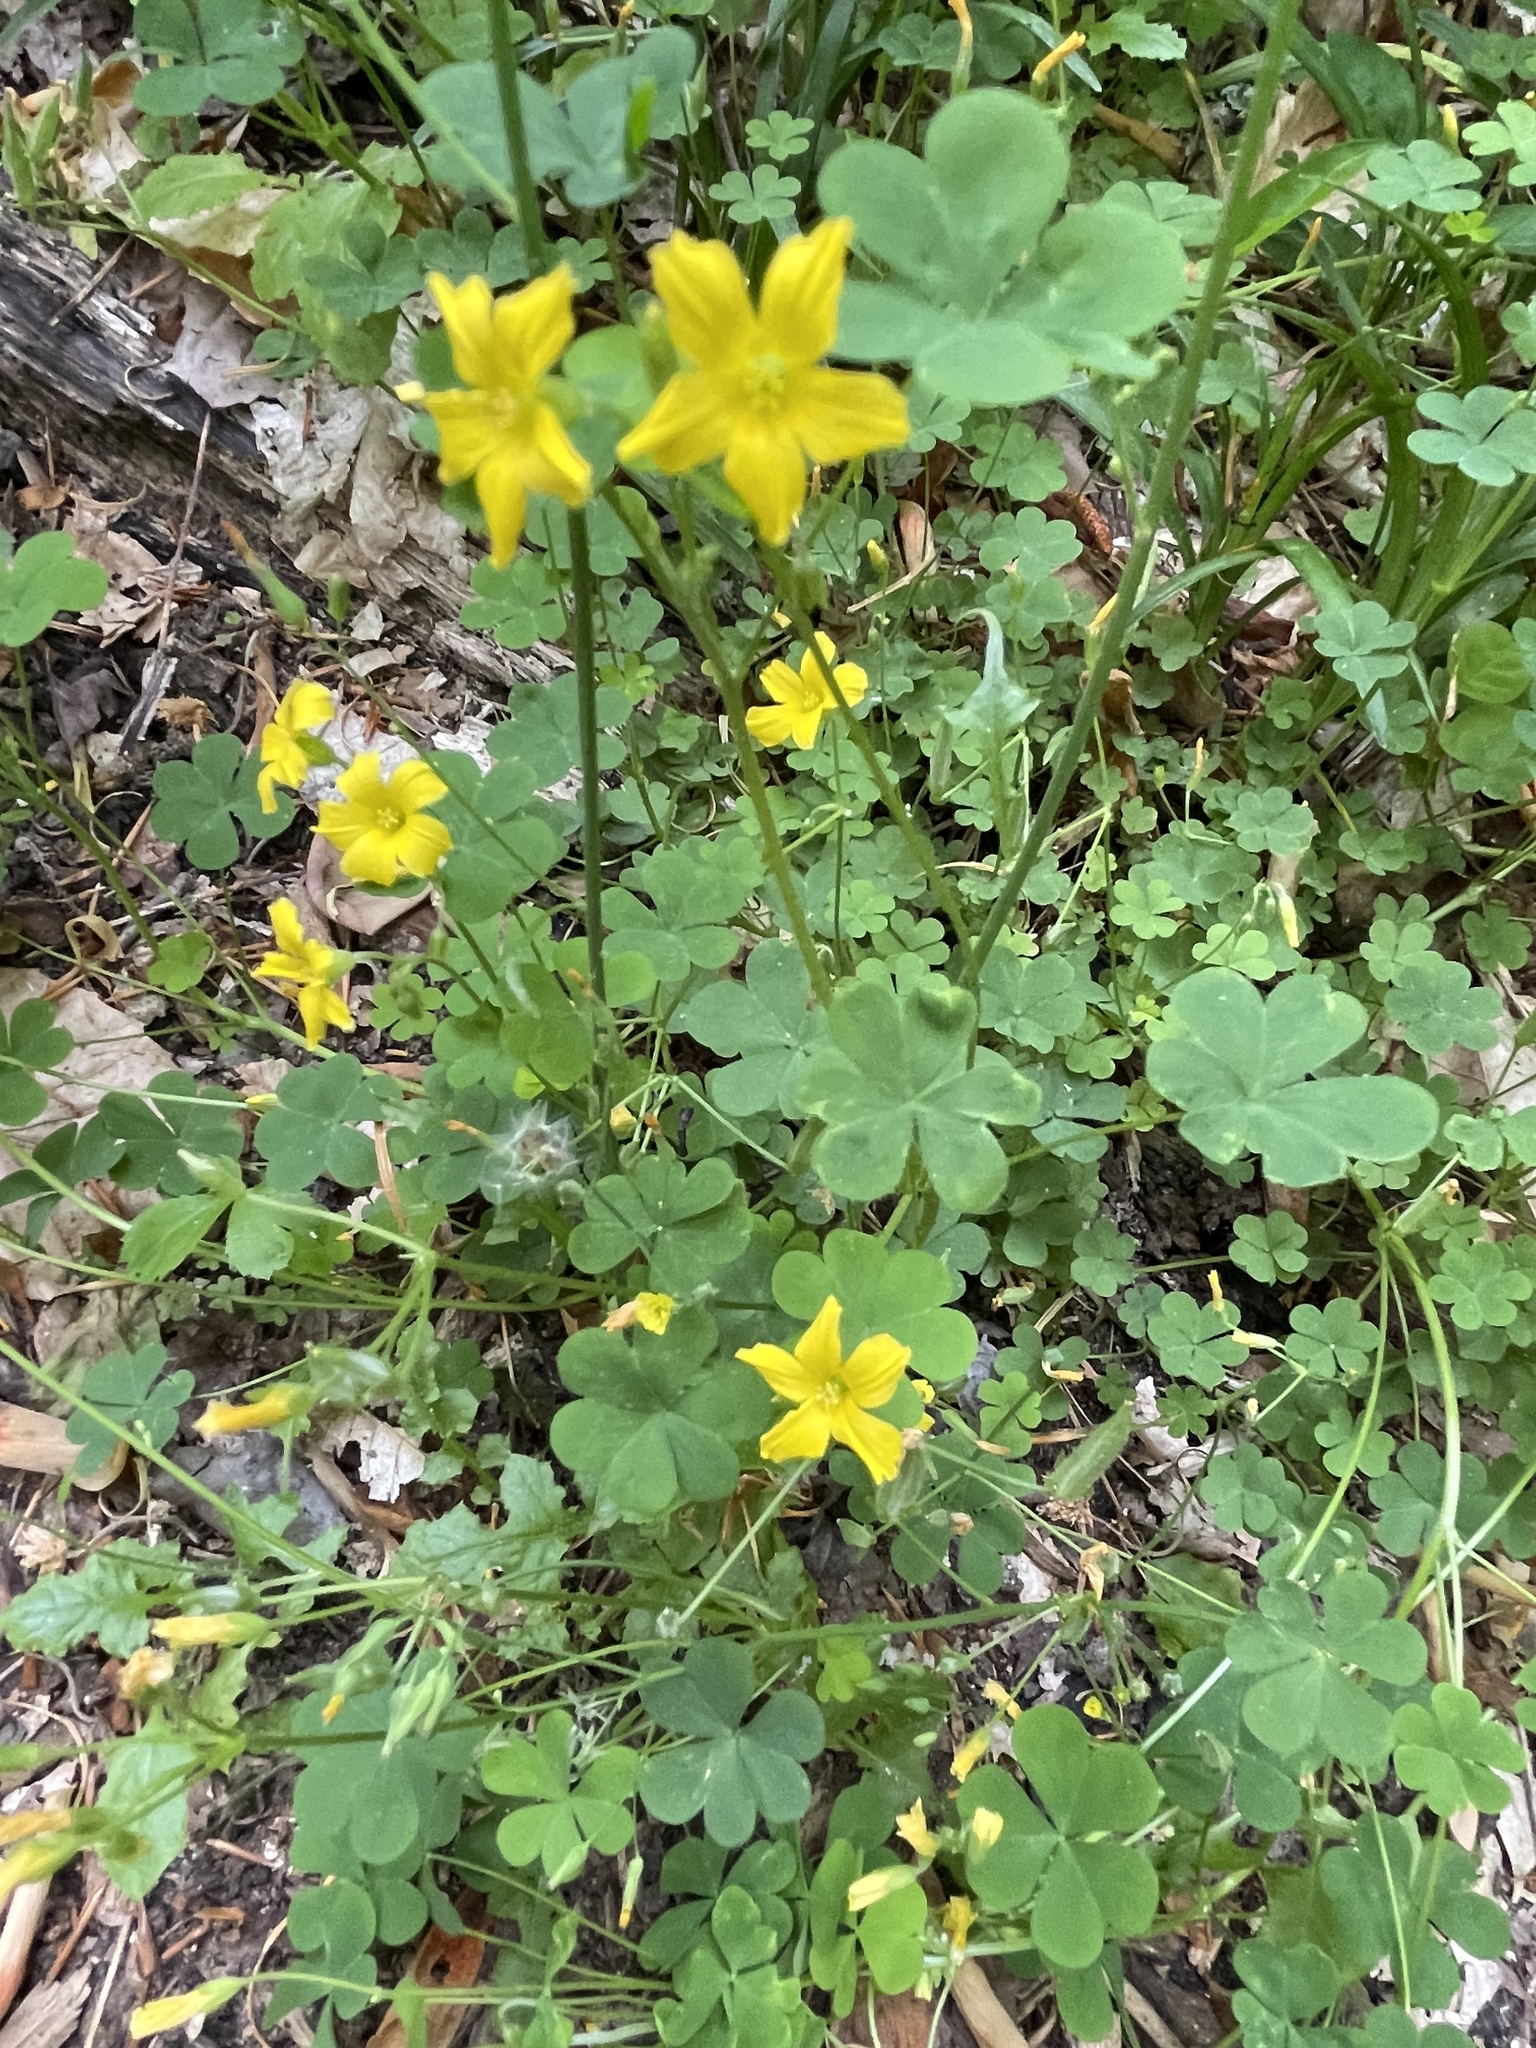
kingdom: Plantae
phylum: Tracheophyta
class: Magnoliopsida
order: Oxalidales
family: Oxalidaceae
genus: Oxalis
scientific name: Oxalis dillenii
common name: Sussex yellow-sorrel
